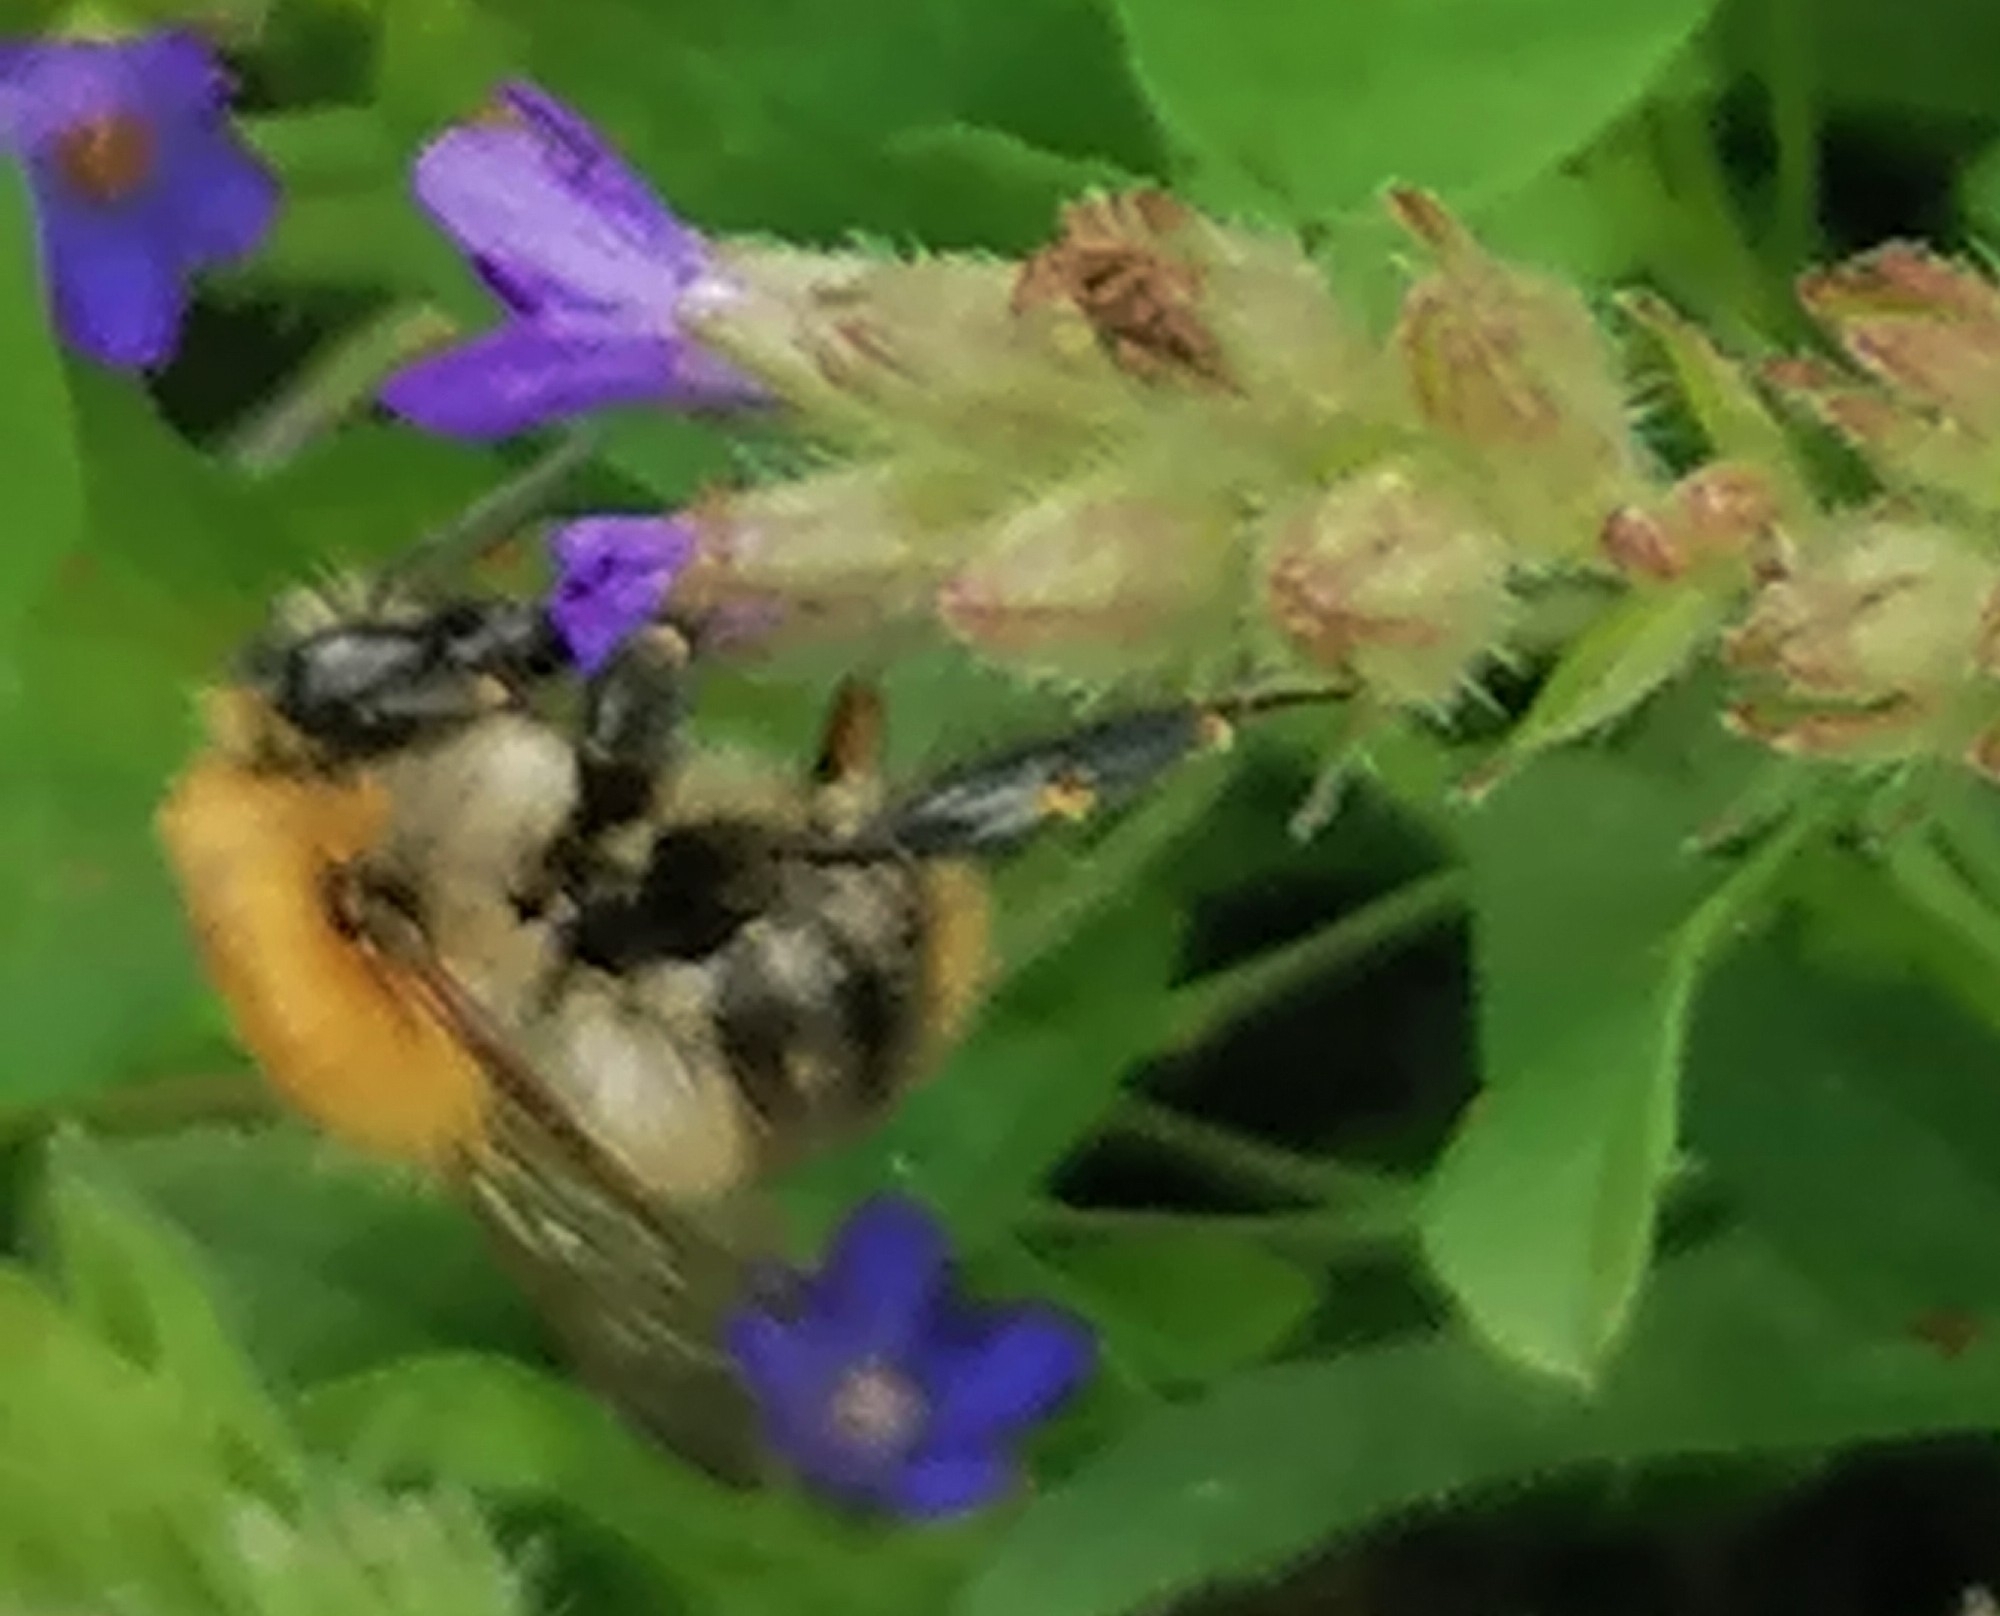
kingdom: Animalia
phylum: Arthropoda
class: Insecta
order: Hymenoptera
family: Apidae
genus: Bombus
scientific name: Bombus pascuorum
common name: Common carder bee
